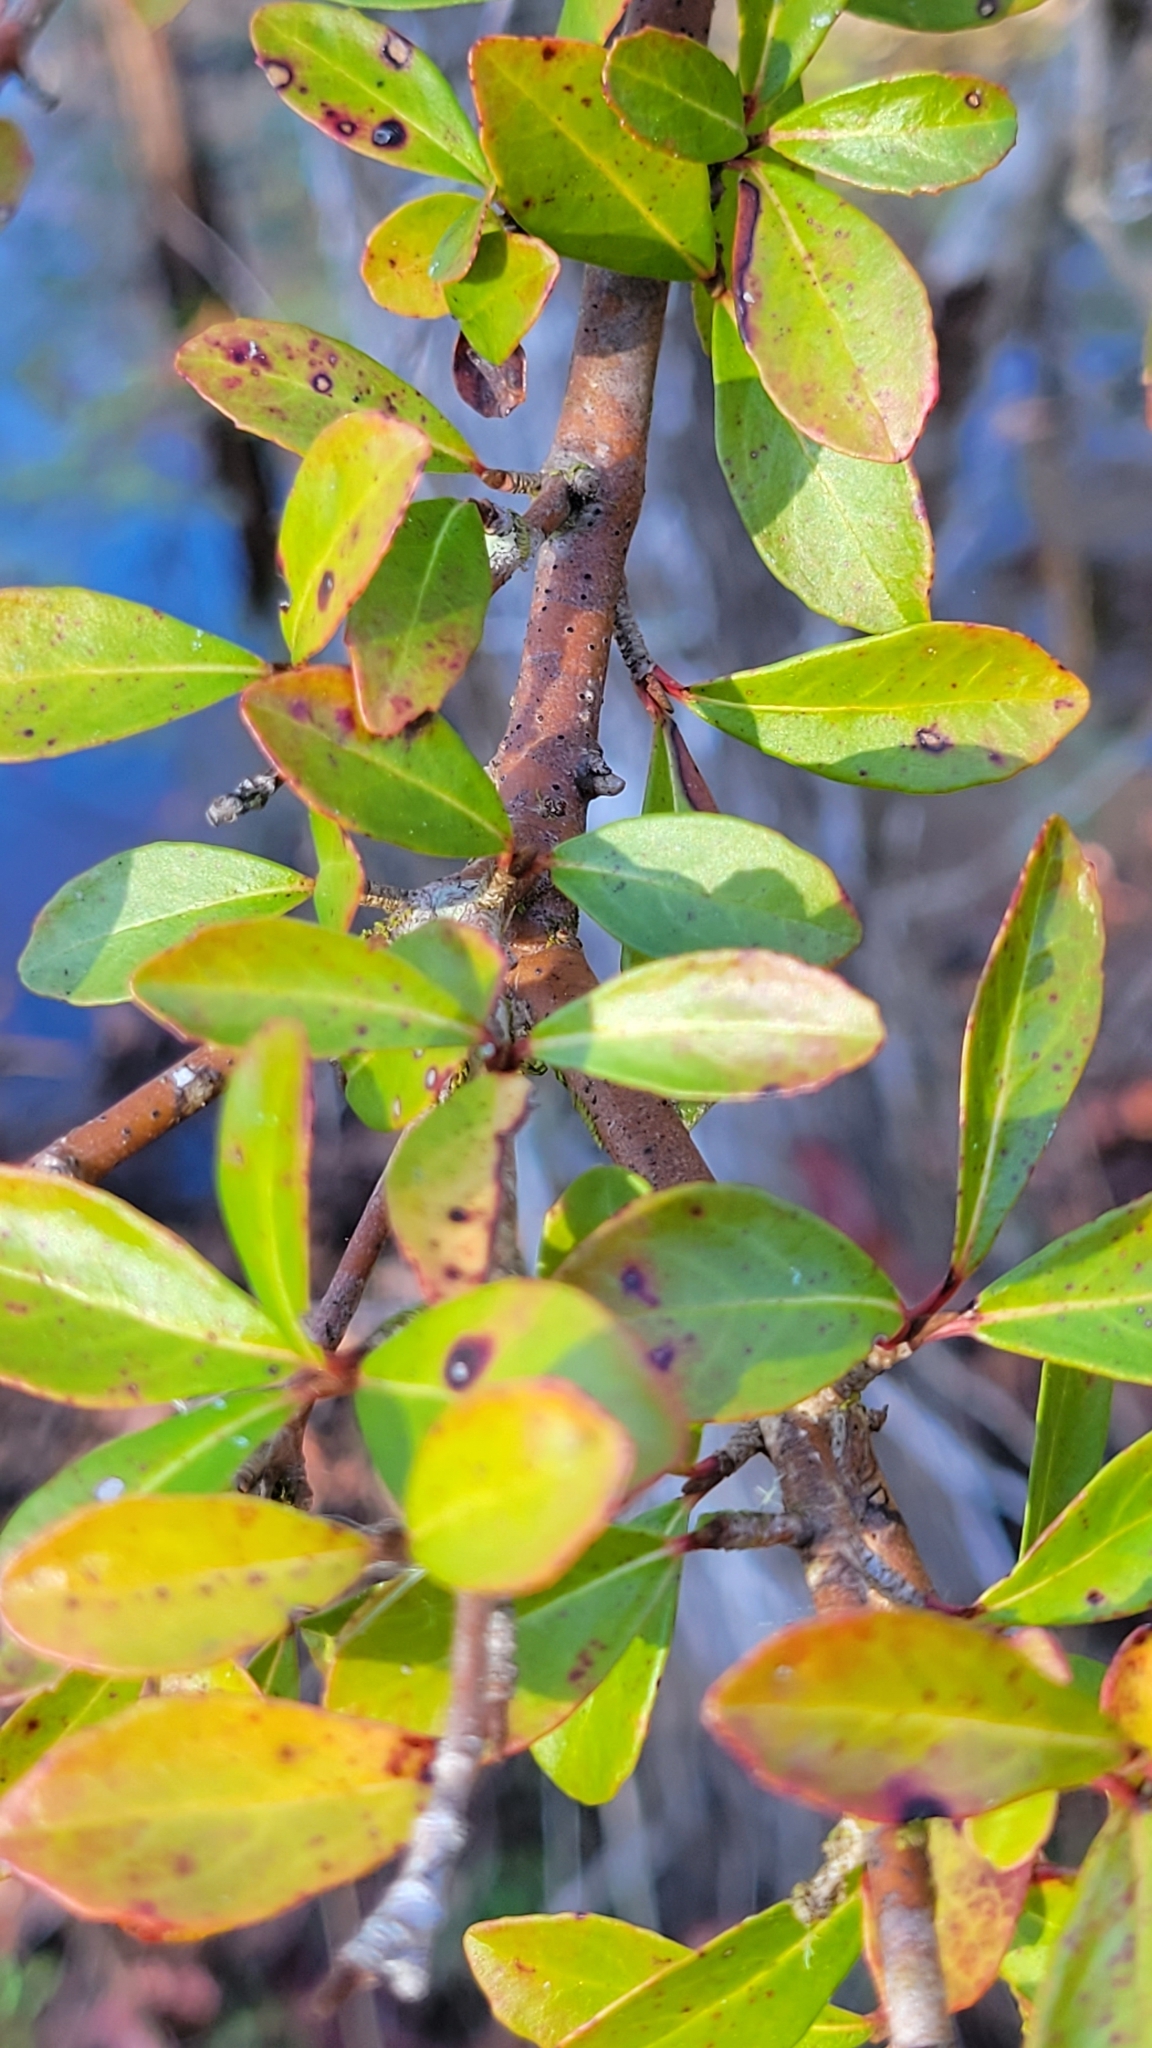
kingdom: Plantae
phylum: Tracheophyta
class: Magnoliopsida
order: Dipsacales
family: Viburnaceae
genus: Viburnum
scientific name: Viburnum obovatum
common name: Walter's viburnum
